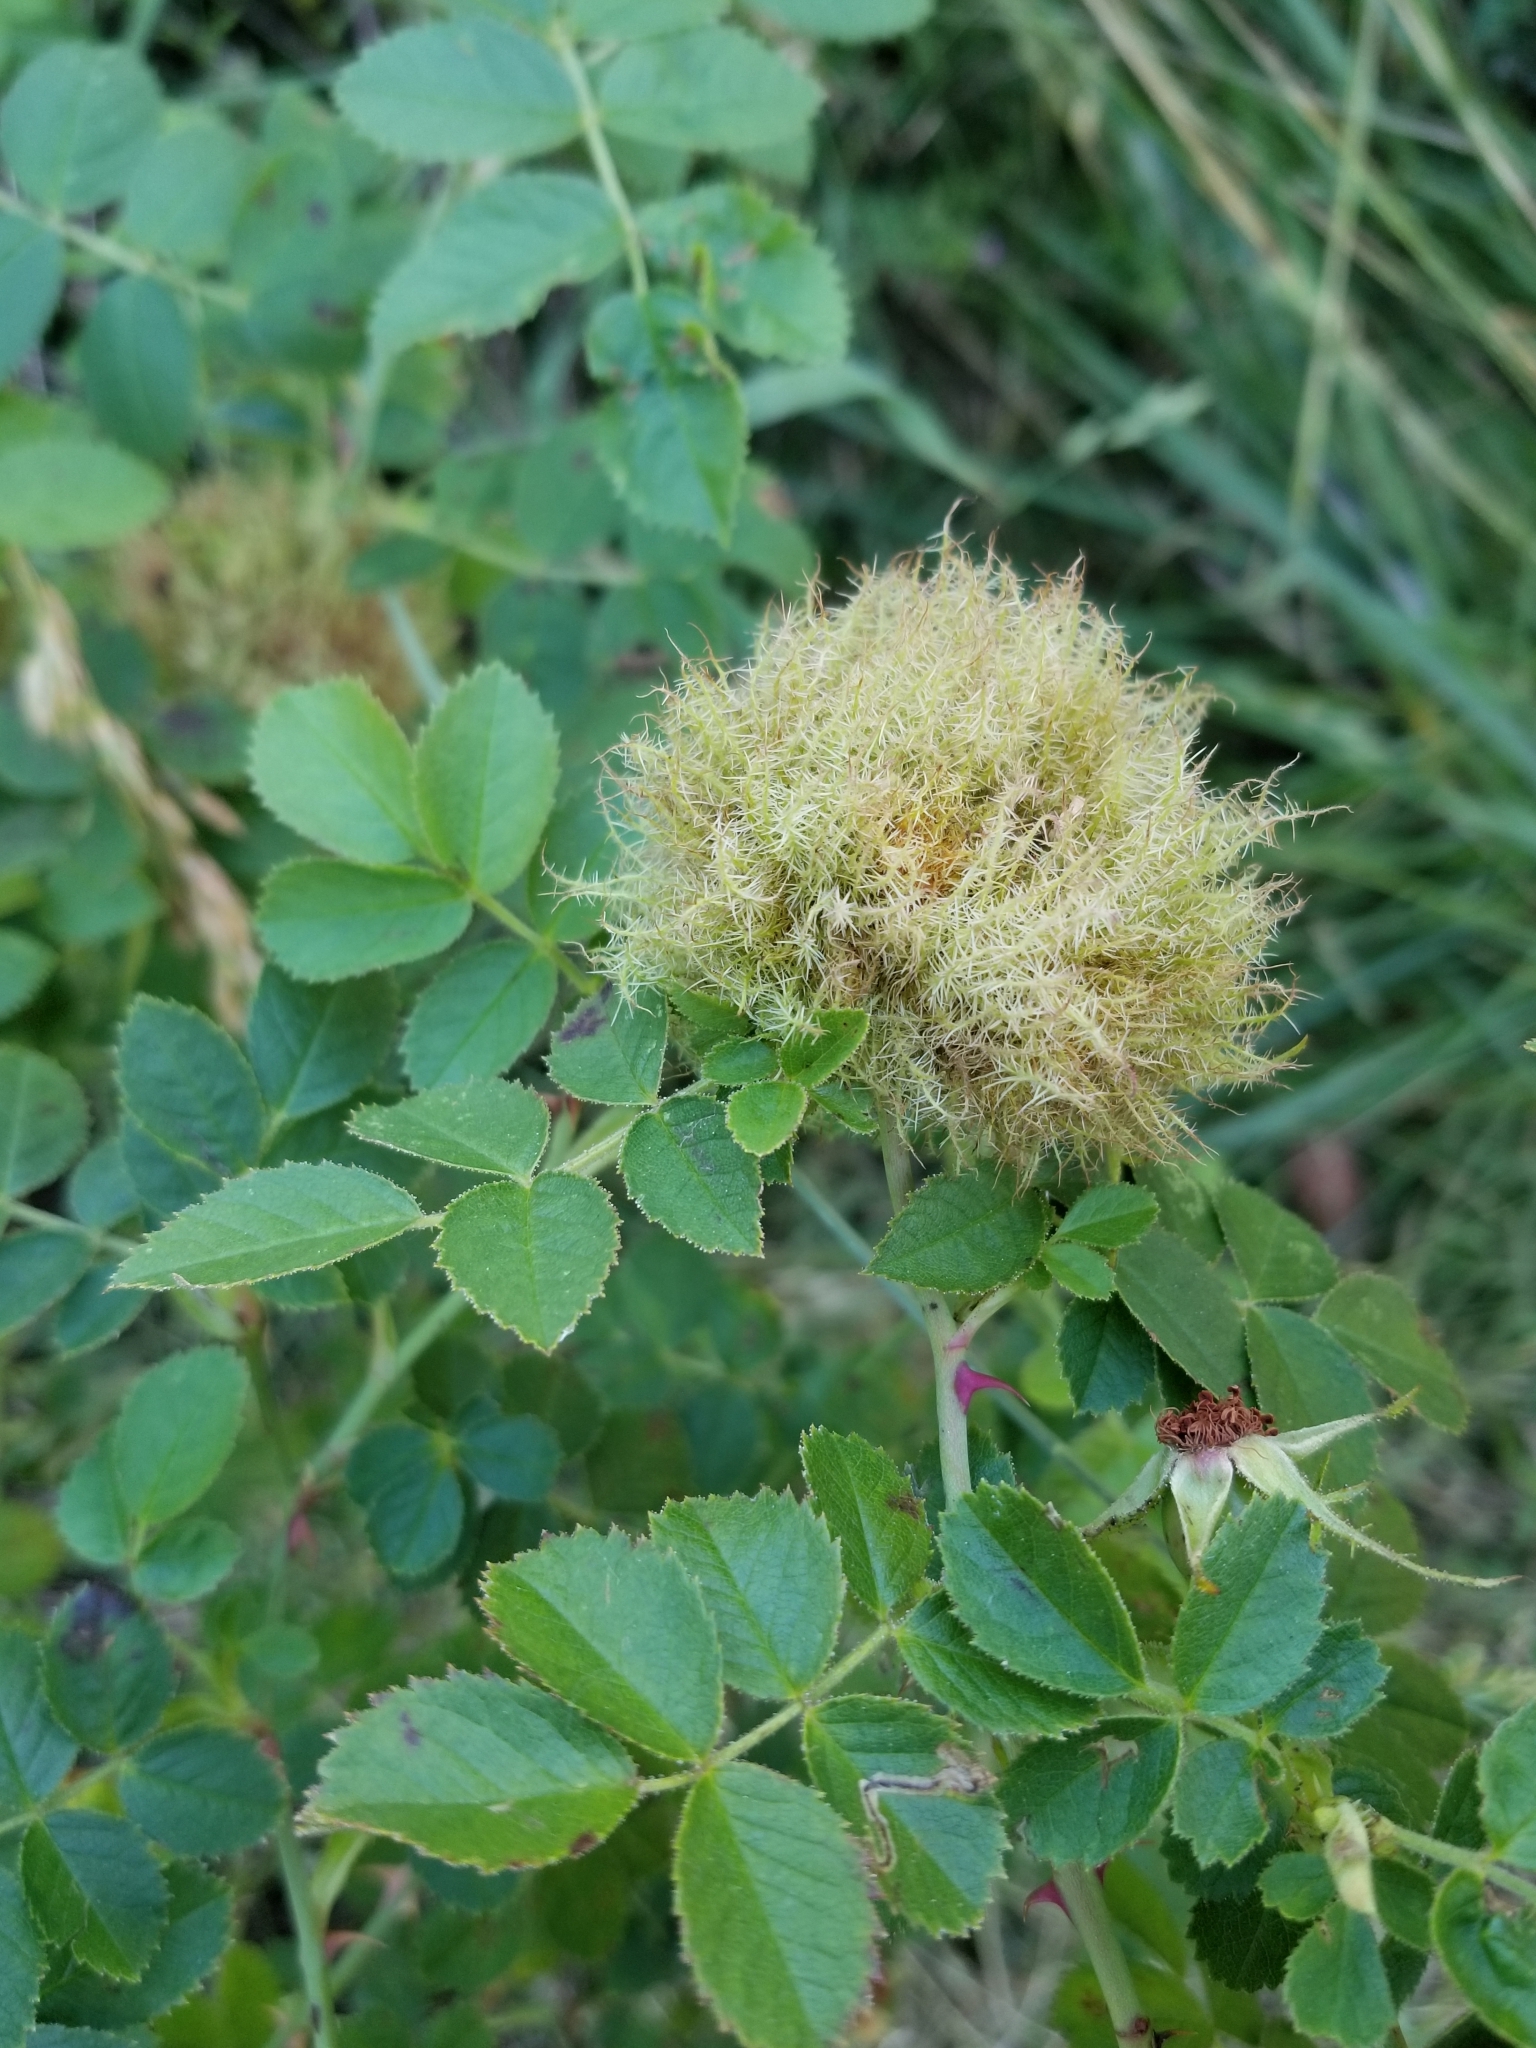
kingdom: Animalia
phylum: Arthropoda
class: Insecta
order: Hymenoptera
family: Cynipidae
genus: Diplolepis
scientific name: Diplolepis rosae
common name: Bedeguar gall
